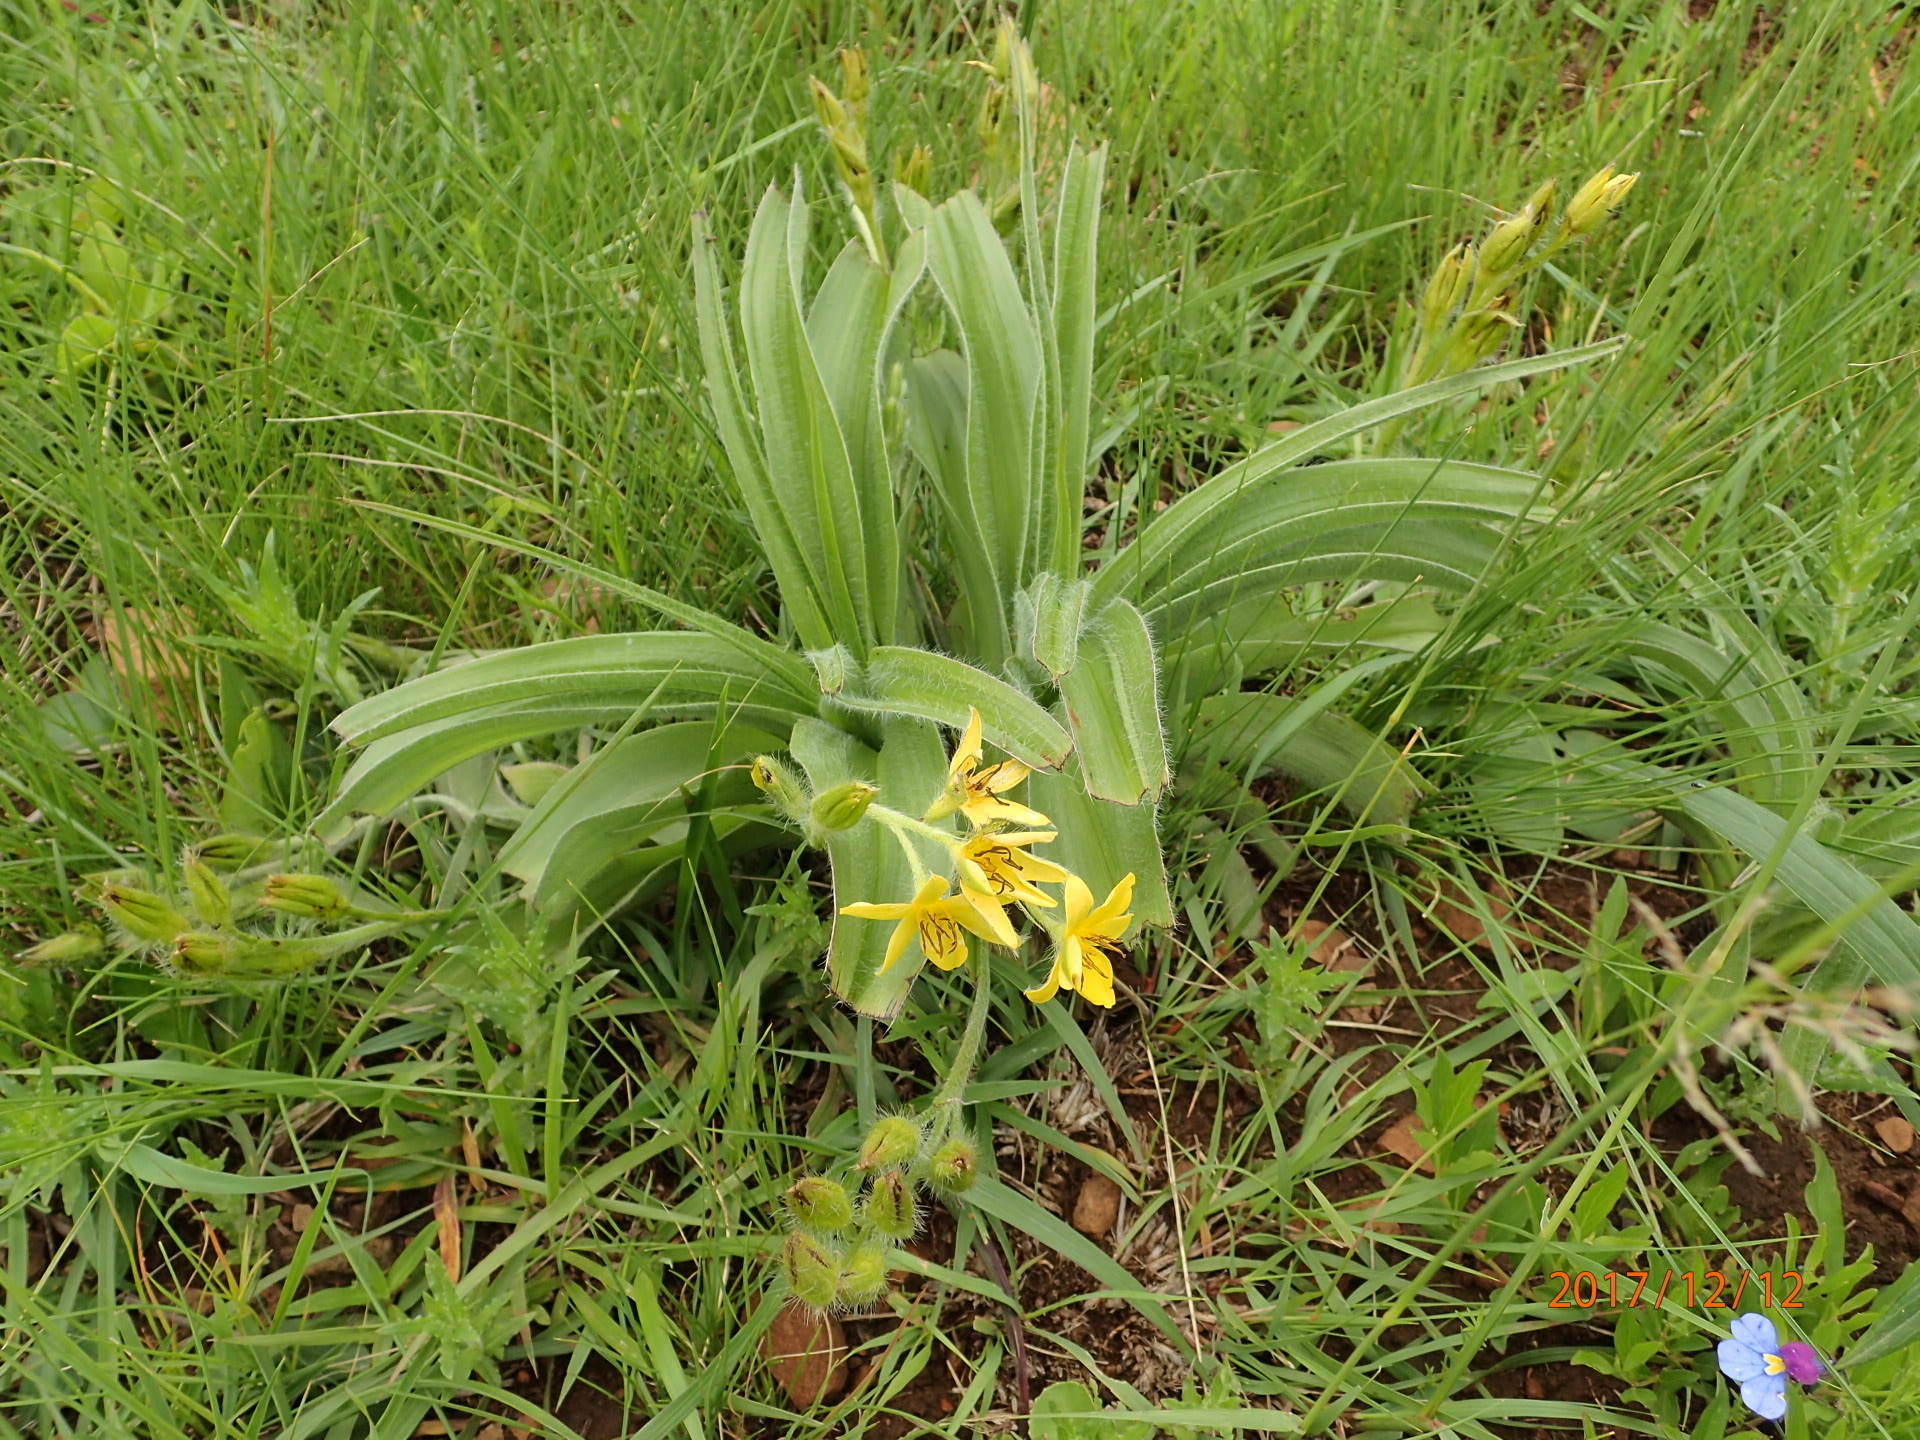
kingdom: Plantae
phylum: Tracheophyta
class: Liliopsida
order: Asparagales
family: Hypoxidaceae
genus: Hypoxis
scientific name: Hypoxis hemerocallidea
